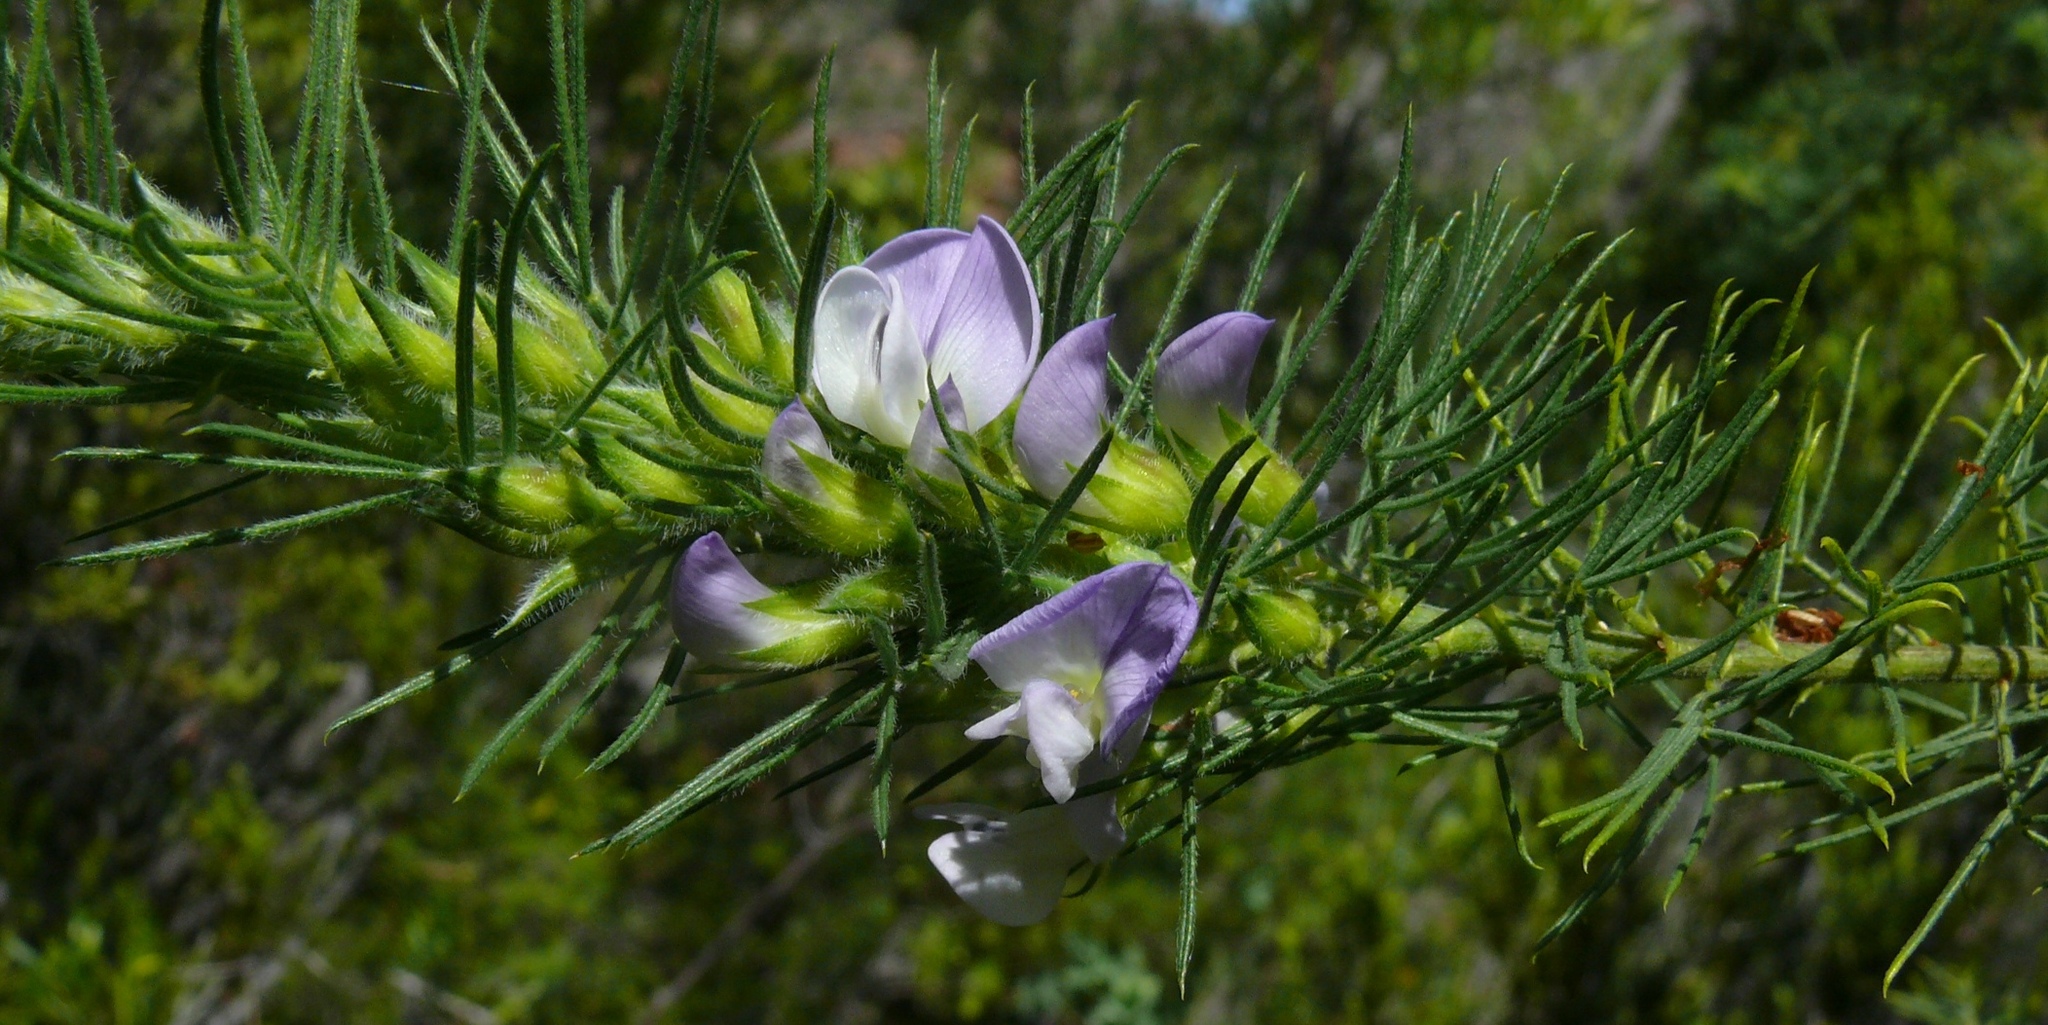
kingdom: Plantae
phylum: Tracheophyta
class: Magnoliopsida
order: Fabales
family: Fabaceae
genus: Psoralea
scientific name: Psoralea intonsa
